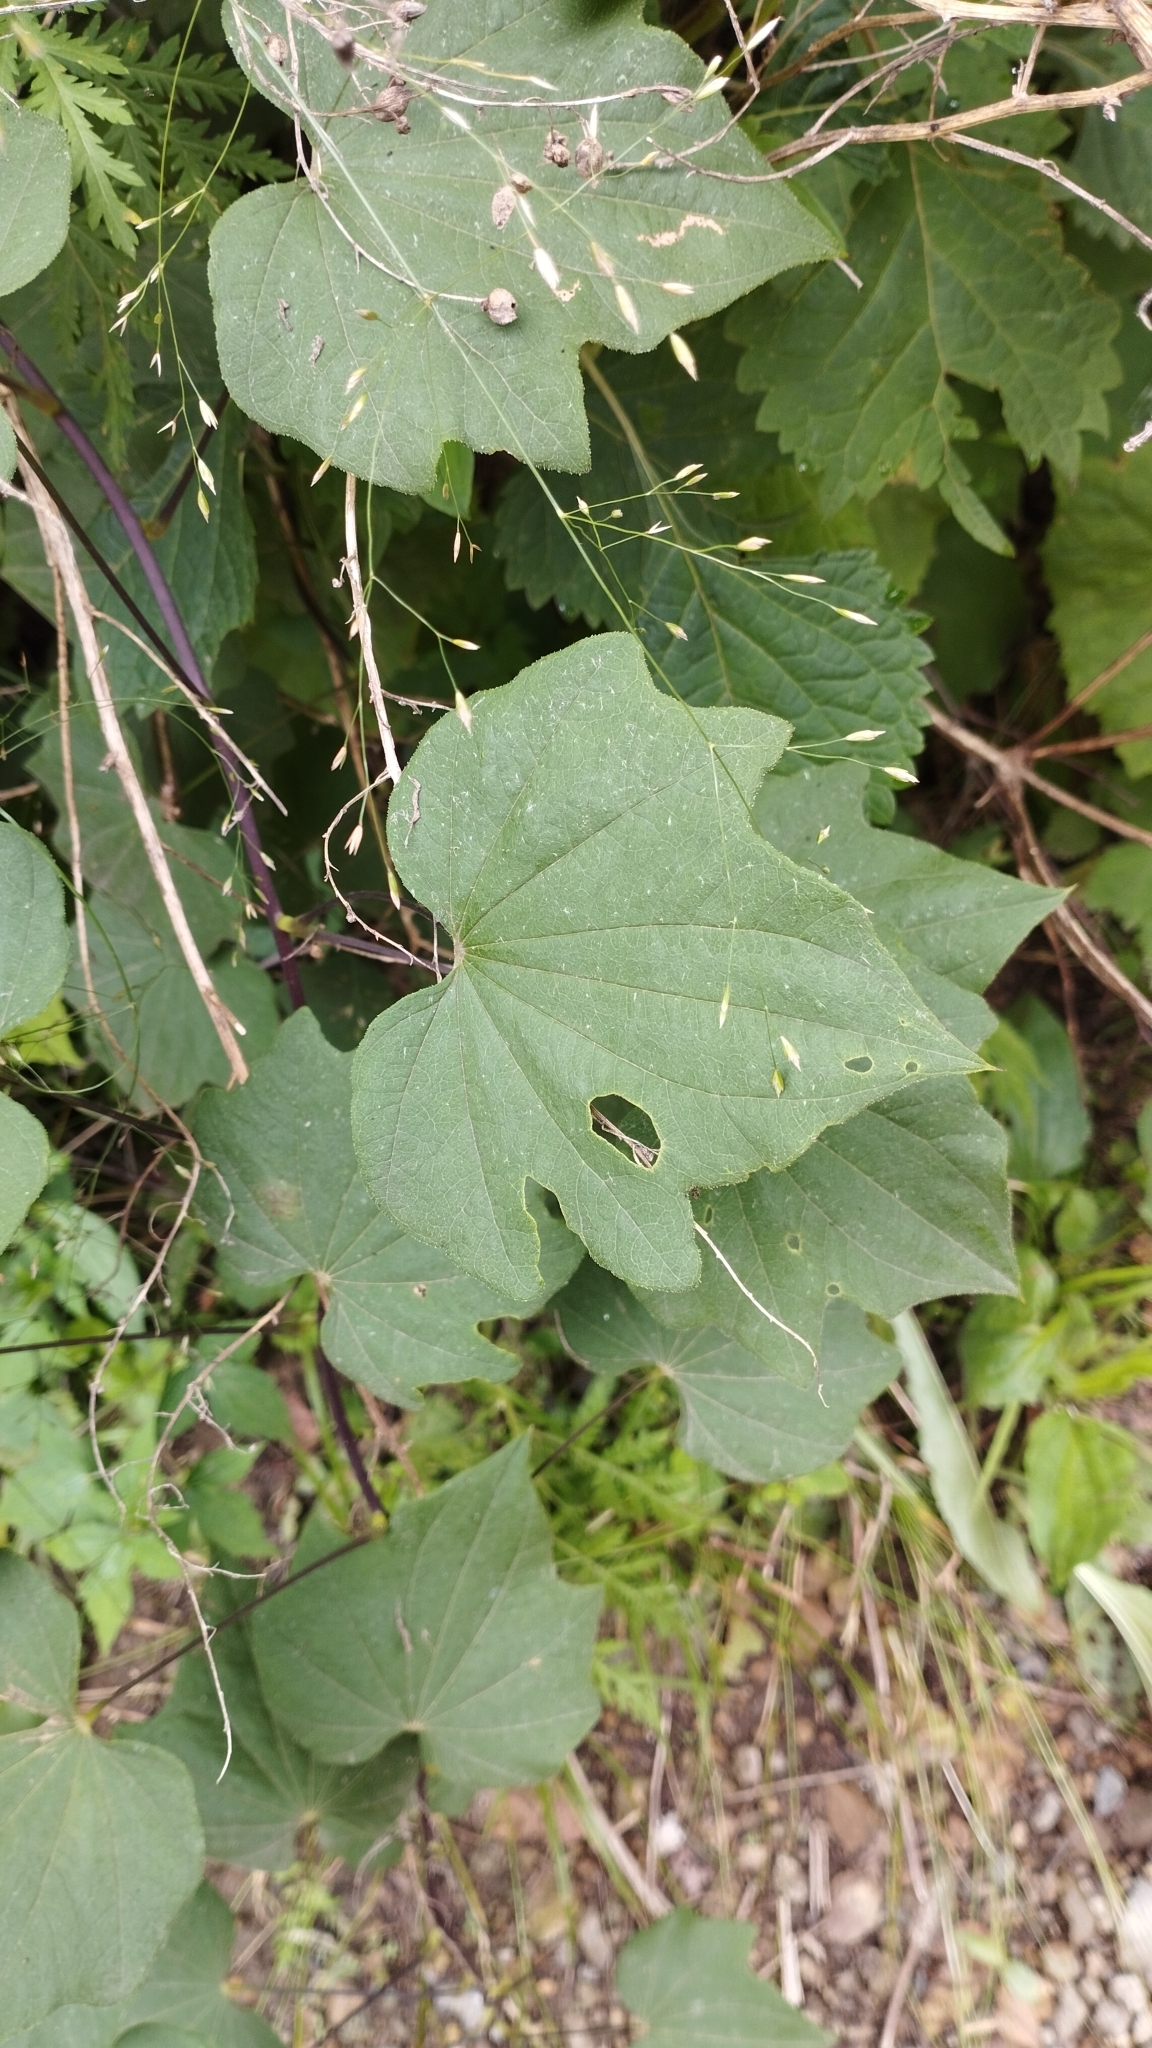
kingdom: Plantae
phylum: Tracheophyta
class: Liliopsida
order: Dioscoreales
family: Dioscoreaceae
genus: Dioscorea
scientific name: Dioscorea nipponica
